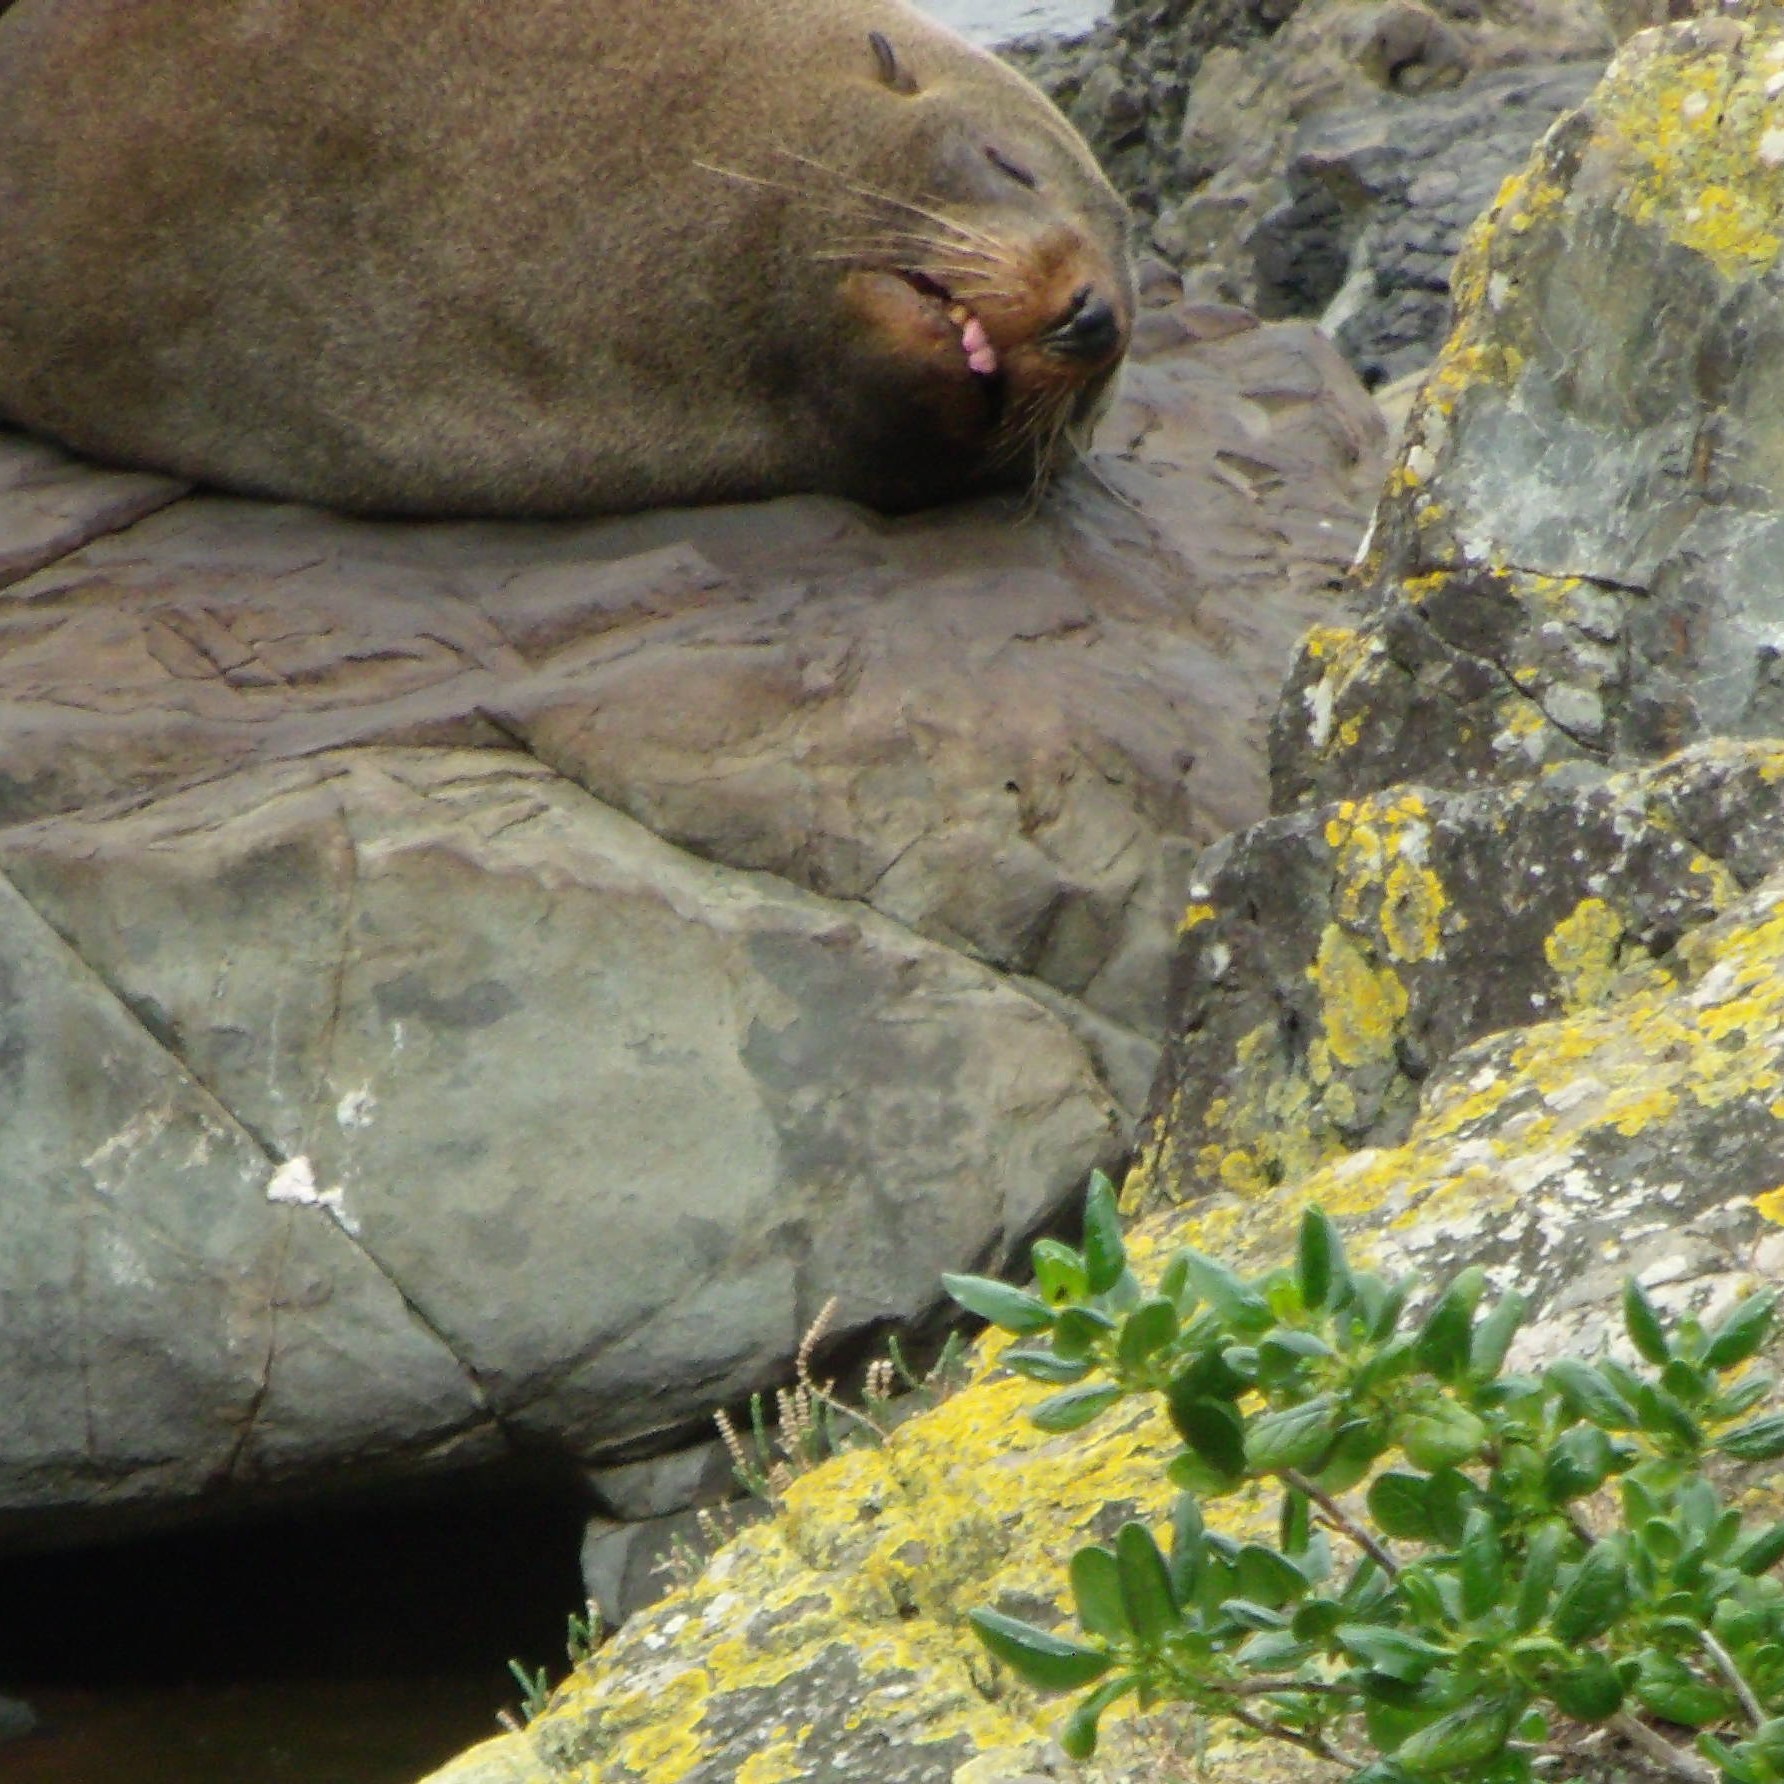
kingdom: Animalia
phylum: Chordata
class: Mammalia
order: Carnivora
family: Otariidae
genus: Arctocephalus
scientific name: Arctocephalus forsteri
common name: New zealand fur seal
